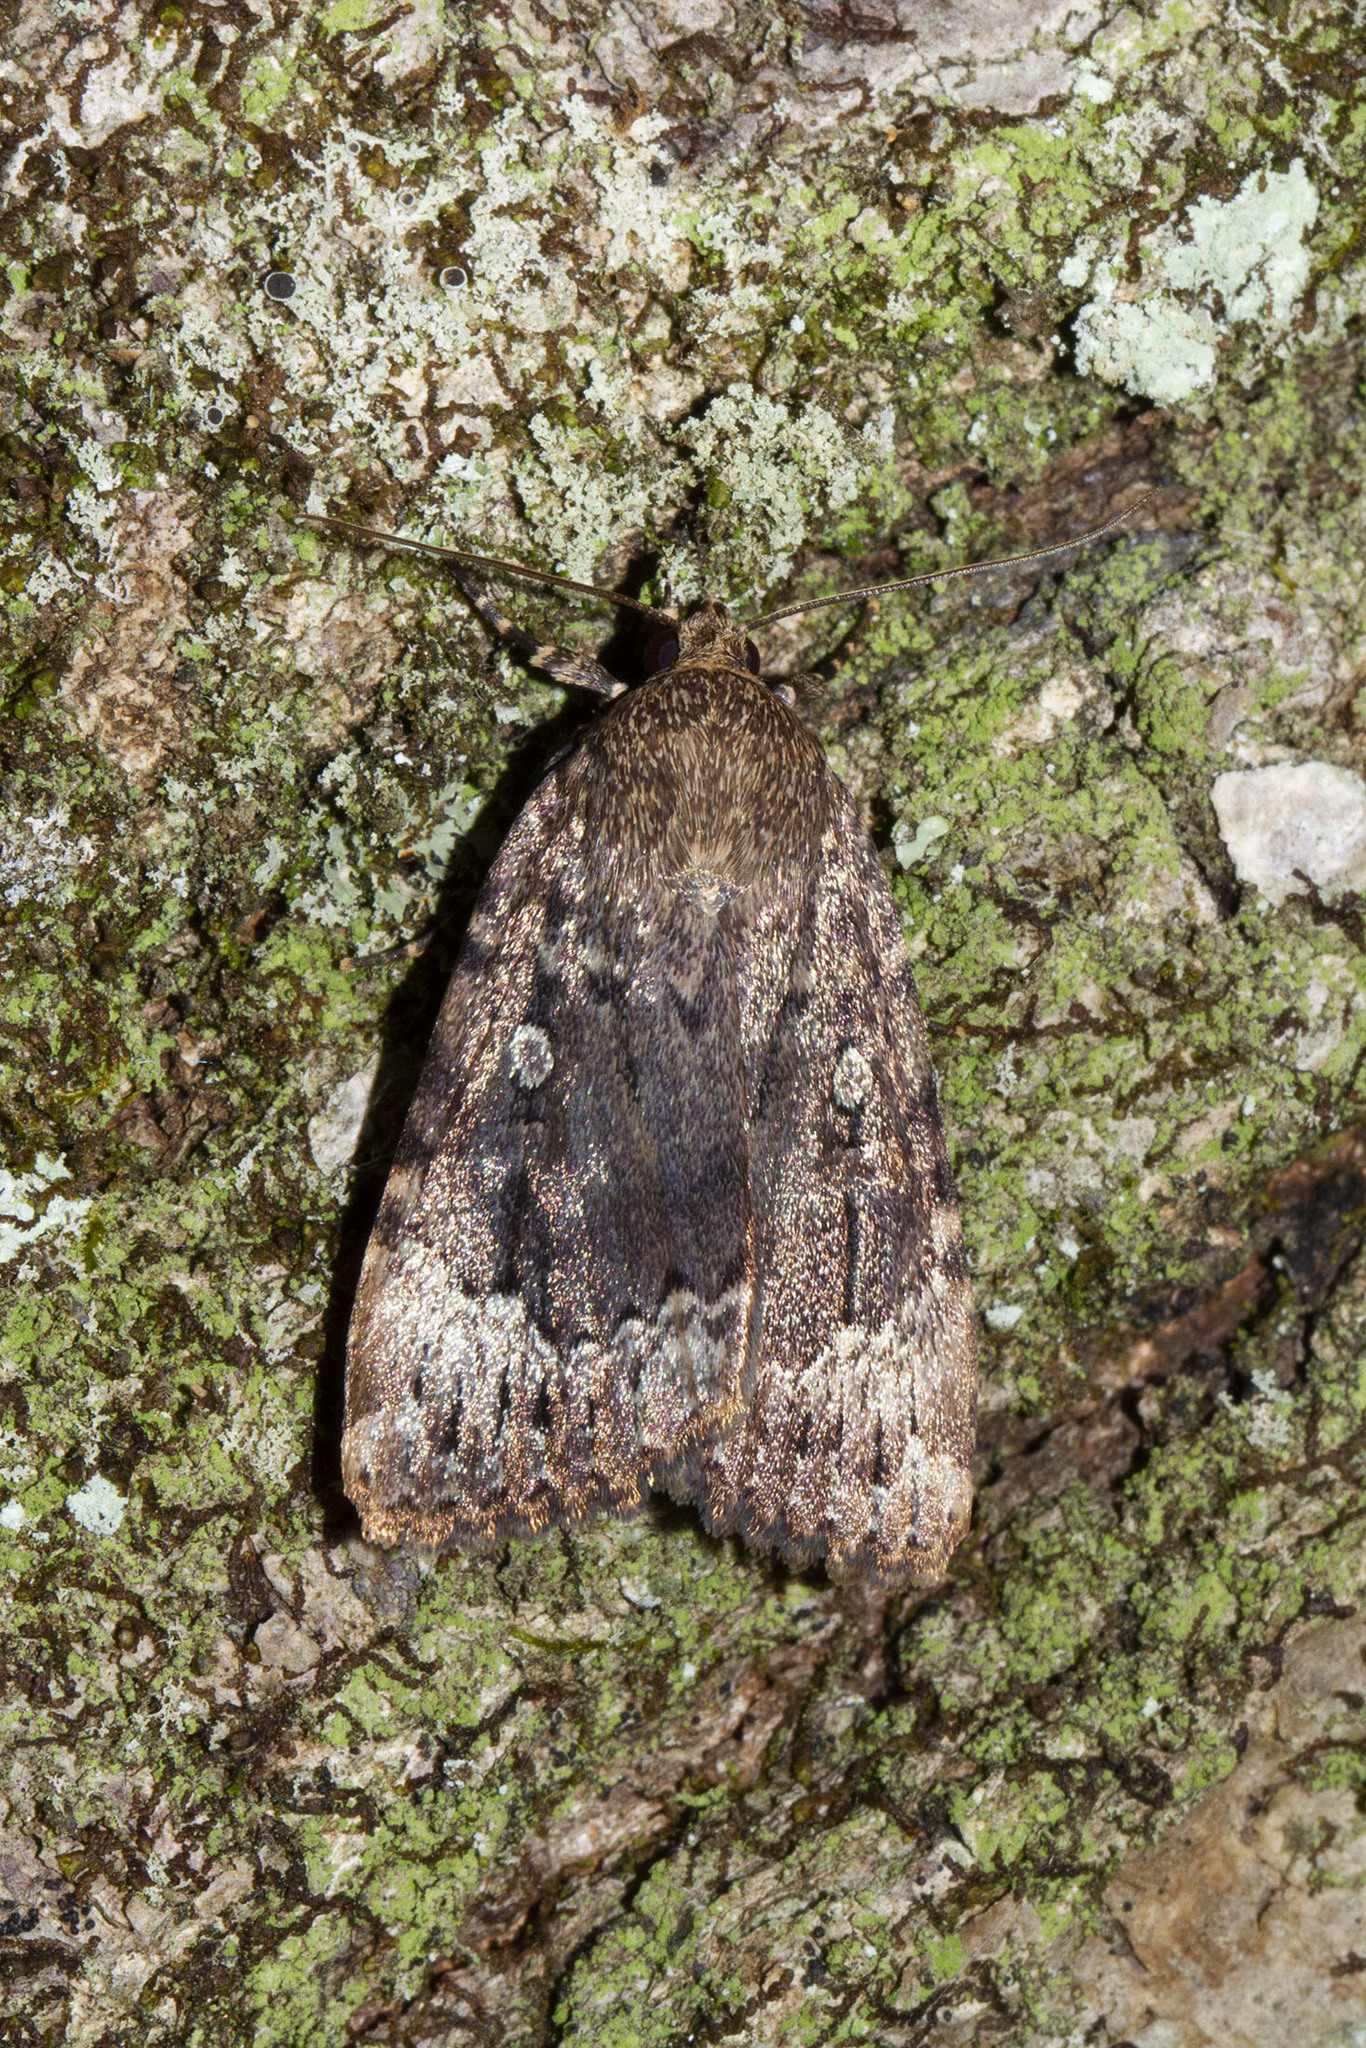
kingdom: Animalia
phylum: Arthropoda
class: Insecta
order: Lepidoptera
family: Noctuidae
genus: Amphipyra
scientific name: Amphipyra pyramidoides
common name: American copper underwing
